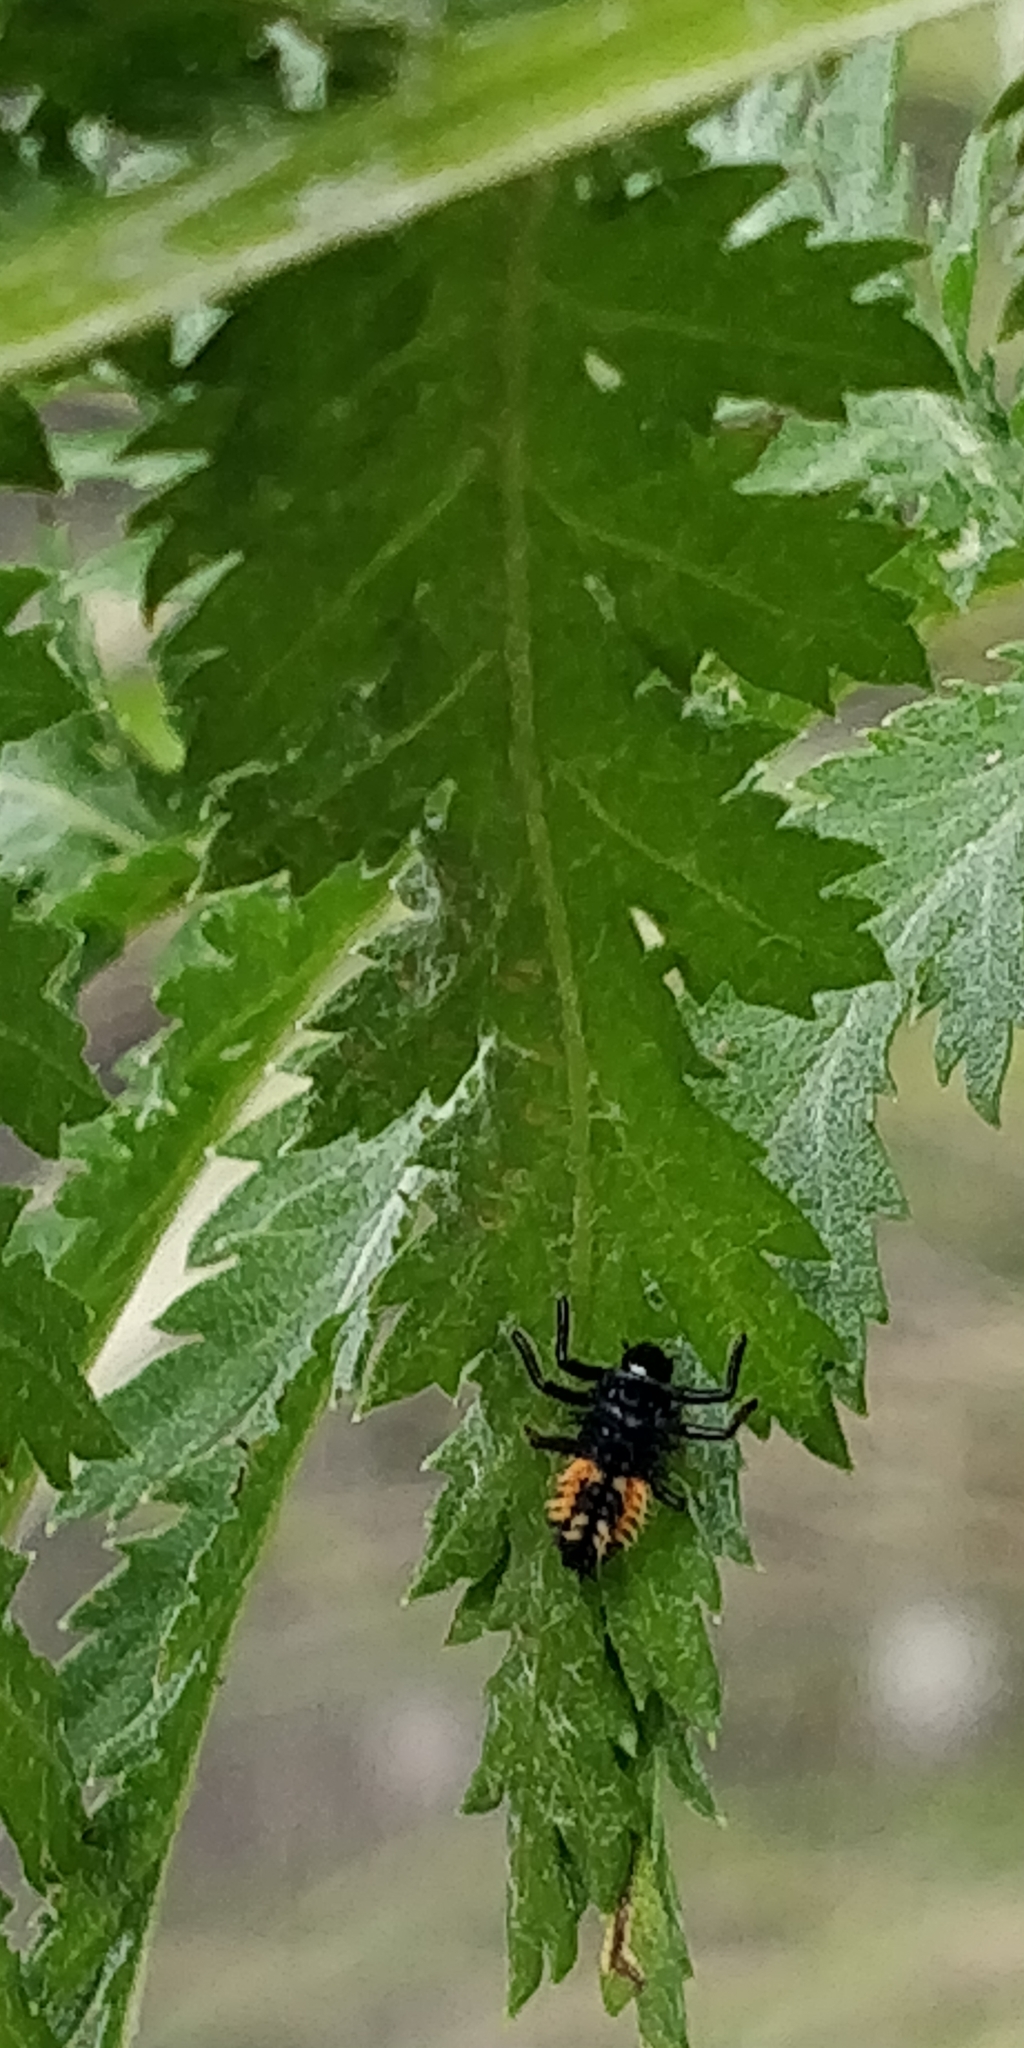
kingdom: Animalia
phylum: Arthropoda
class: Insecta
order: Coleoptera
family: Coccinellidae
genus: Harmonia
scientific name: Harmonia axyridis
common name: Harlequin ladybird
